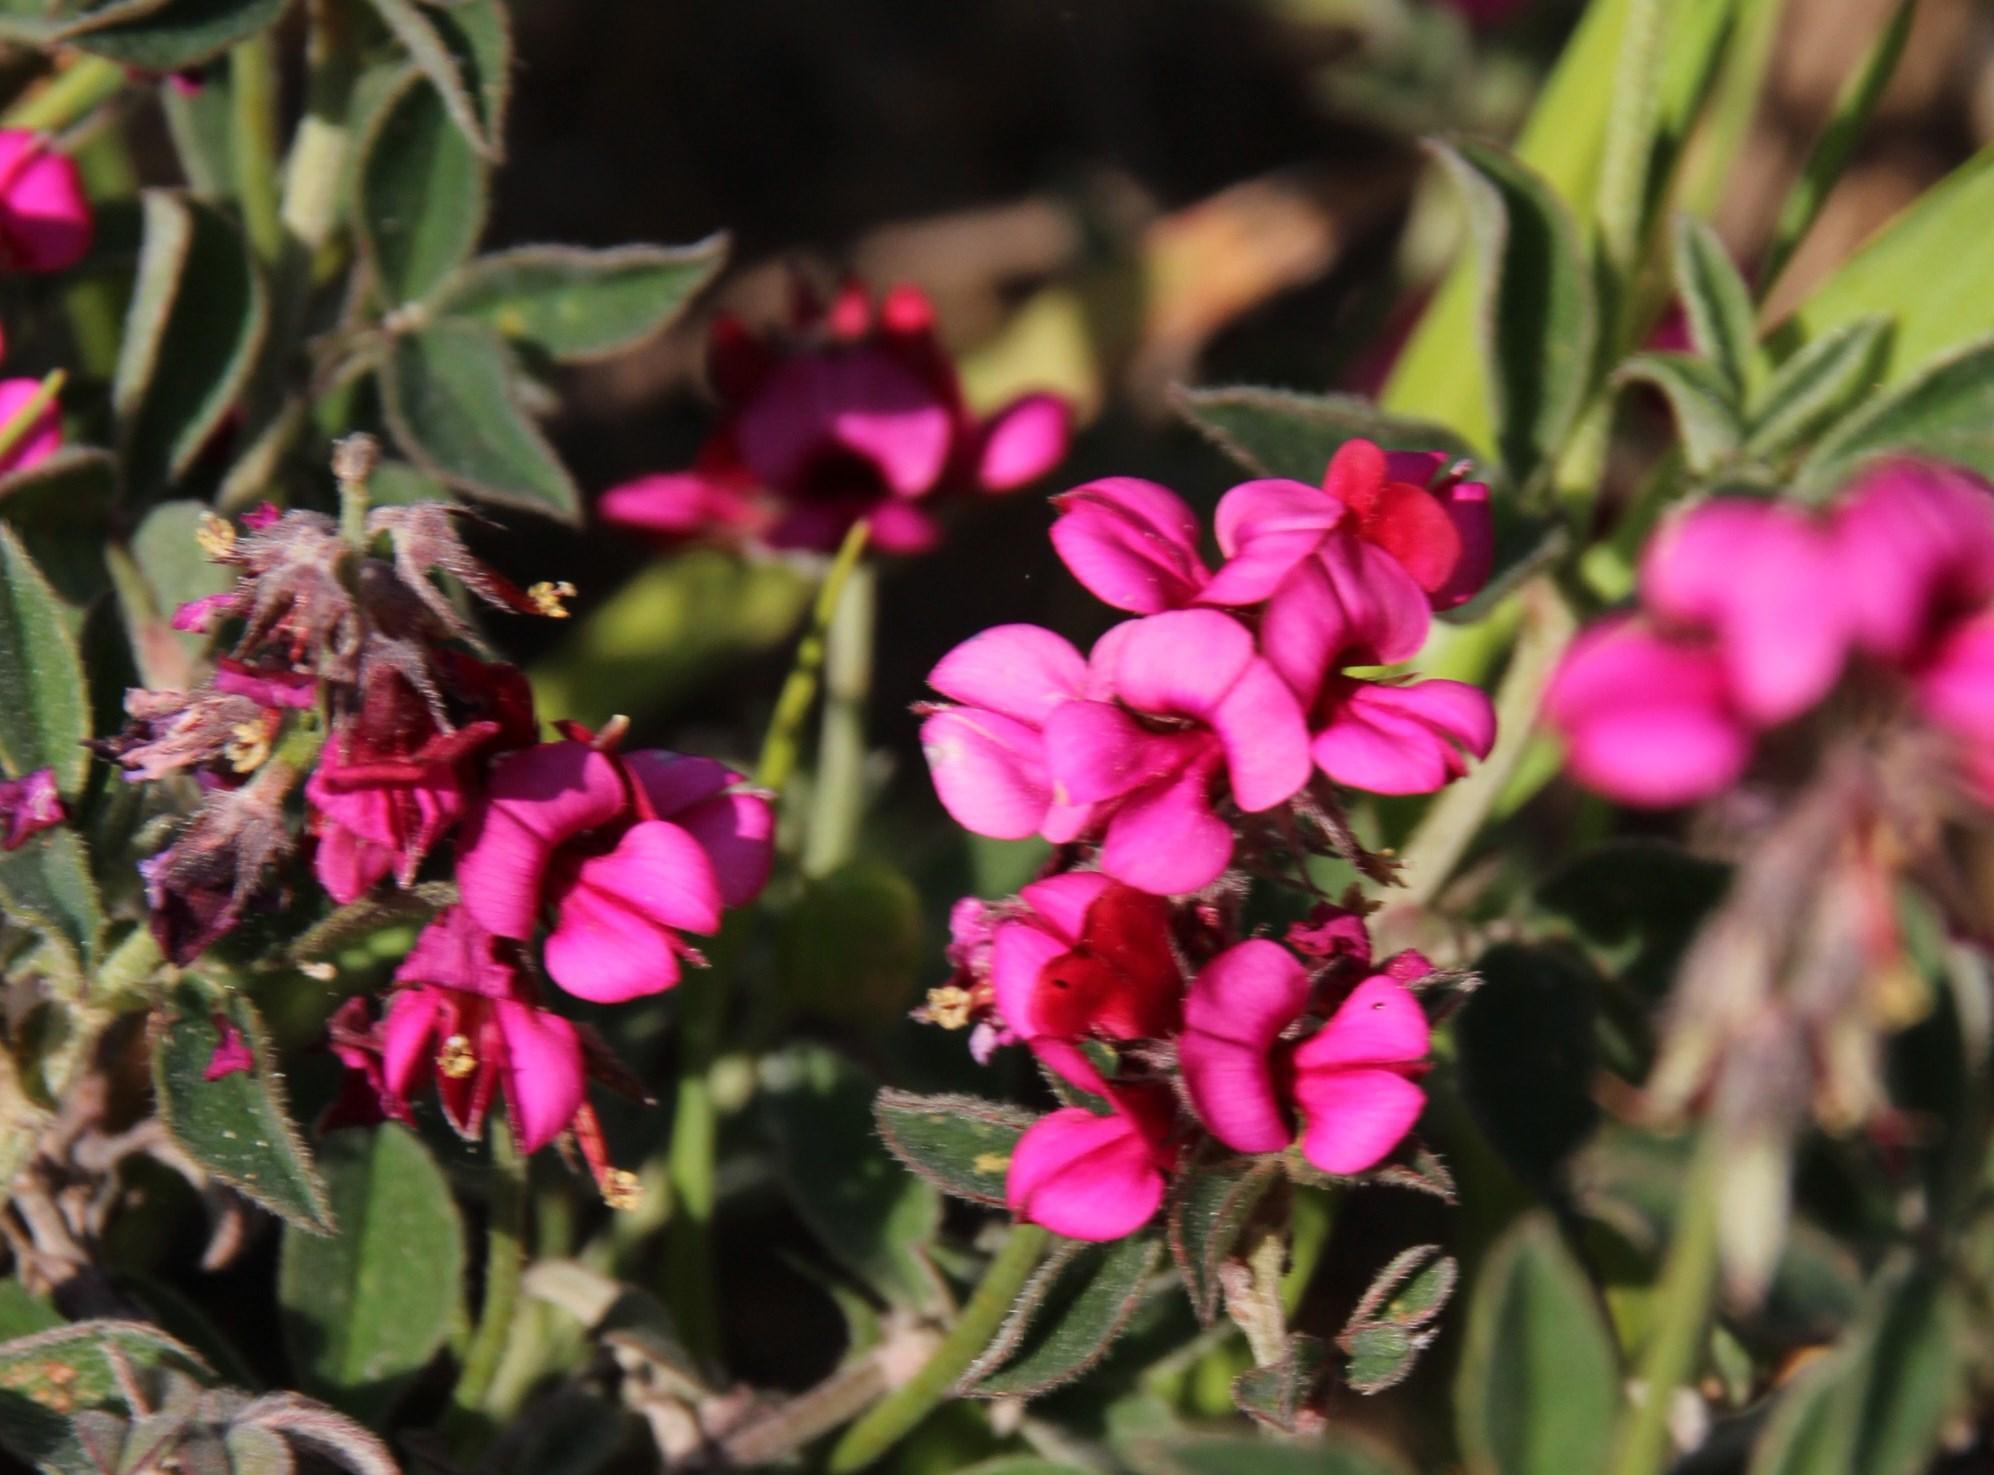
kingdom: Plantae
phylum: Tracheophyta
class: Magnoliopsida
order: Fabales
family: Fabaceae
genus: Indigofera
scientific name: Indigofera incana
